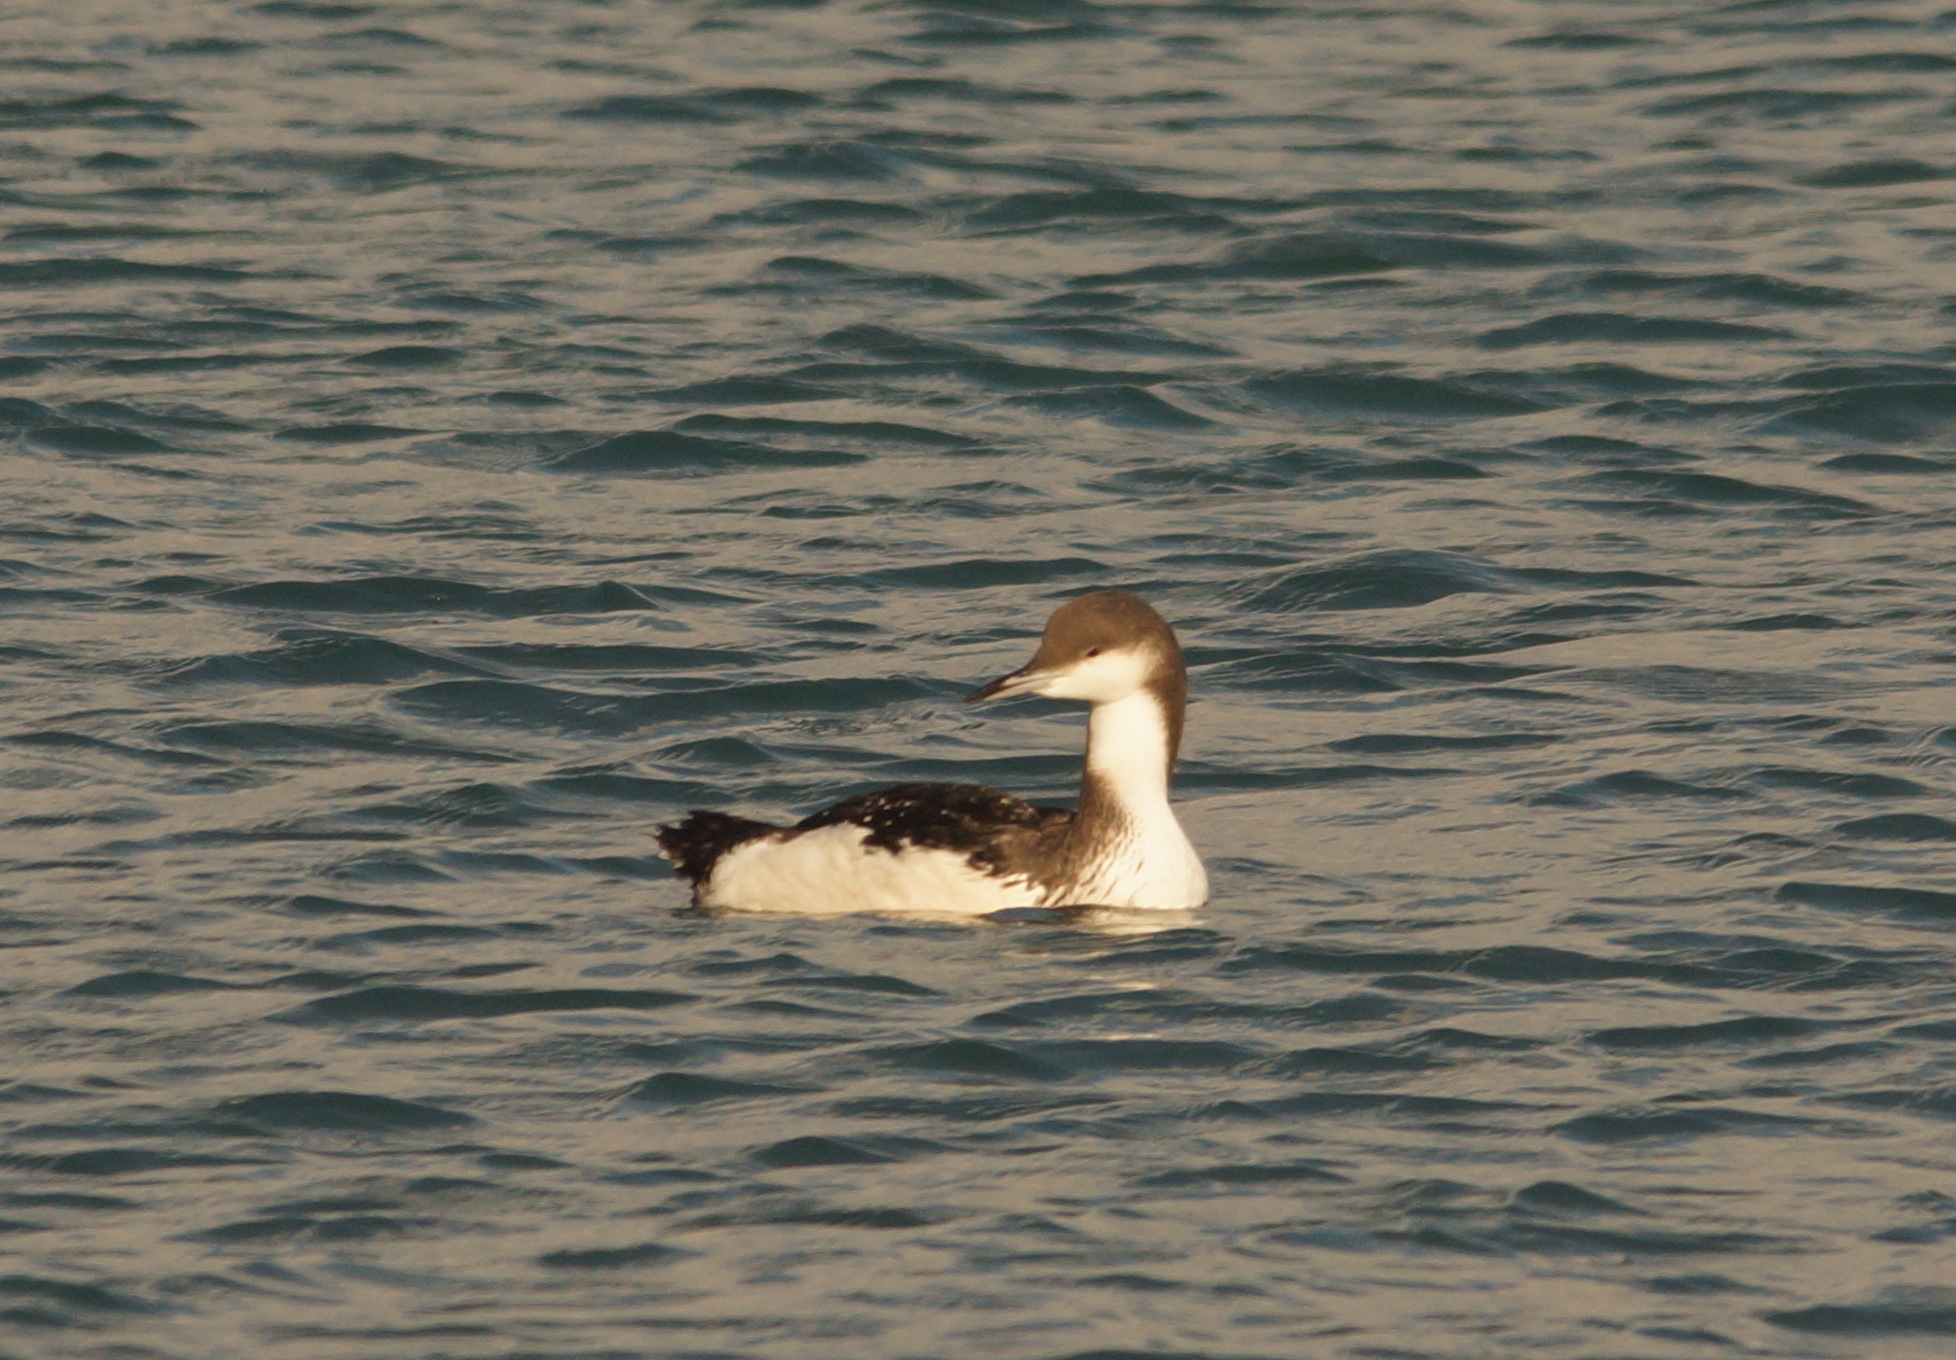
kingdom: Animalia
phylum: Chordata
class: Aves
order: Gaviiformes
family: Gaviidae
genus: Gavia
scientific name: Gavia arctica
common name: Black-throated loon
